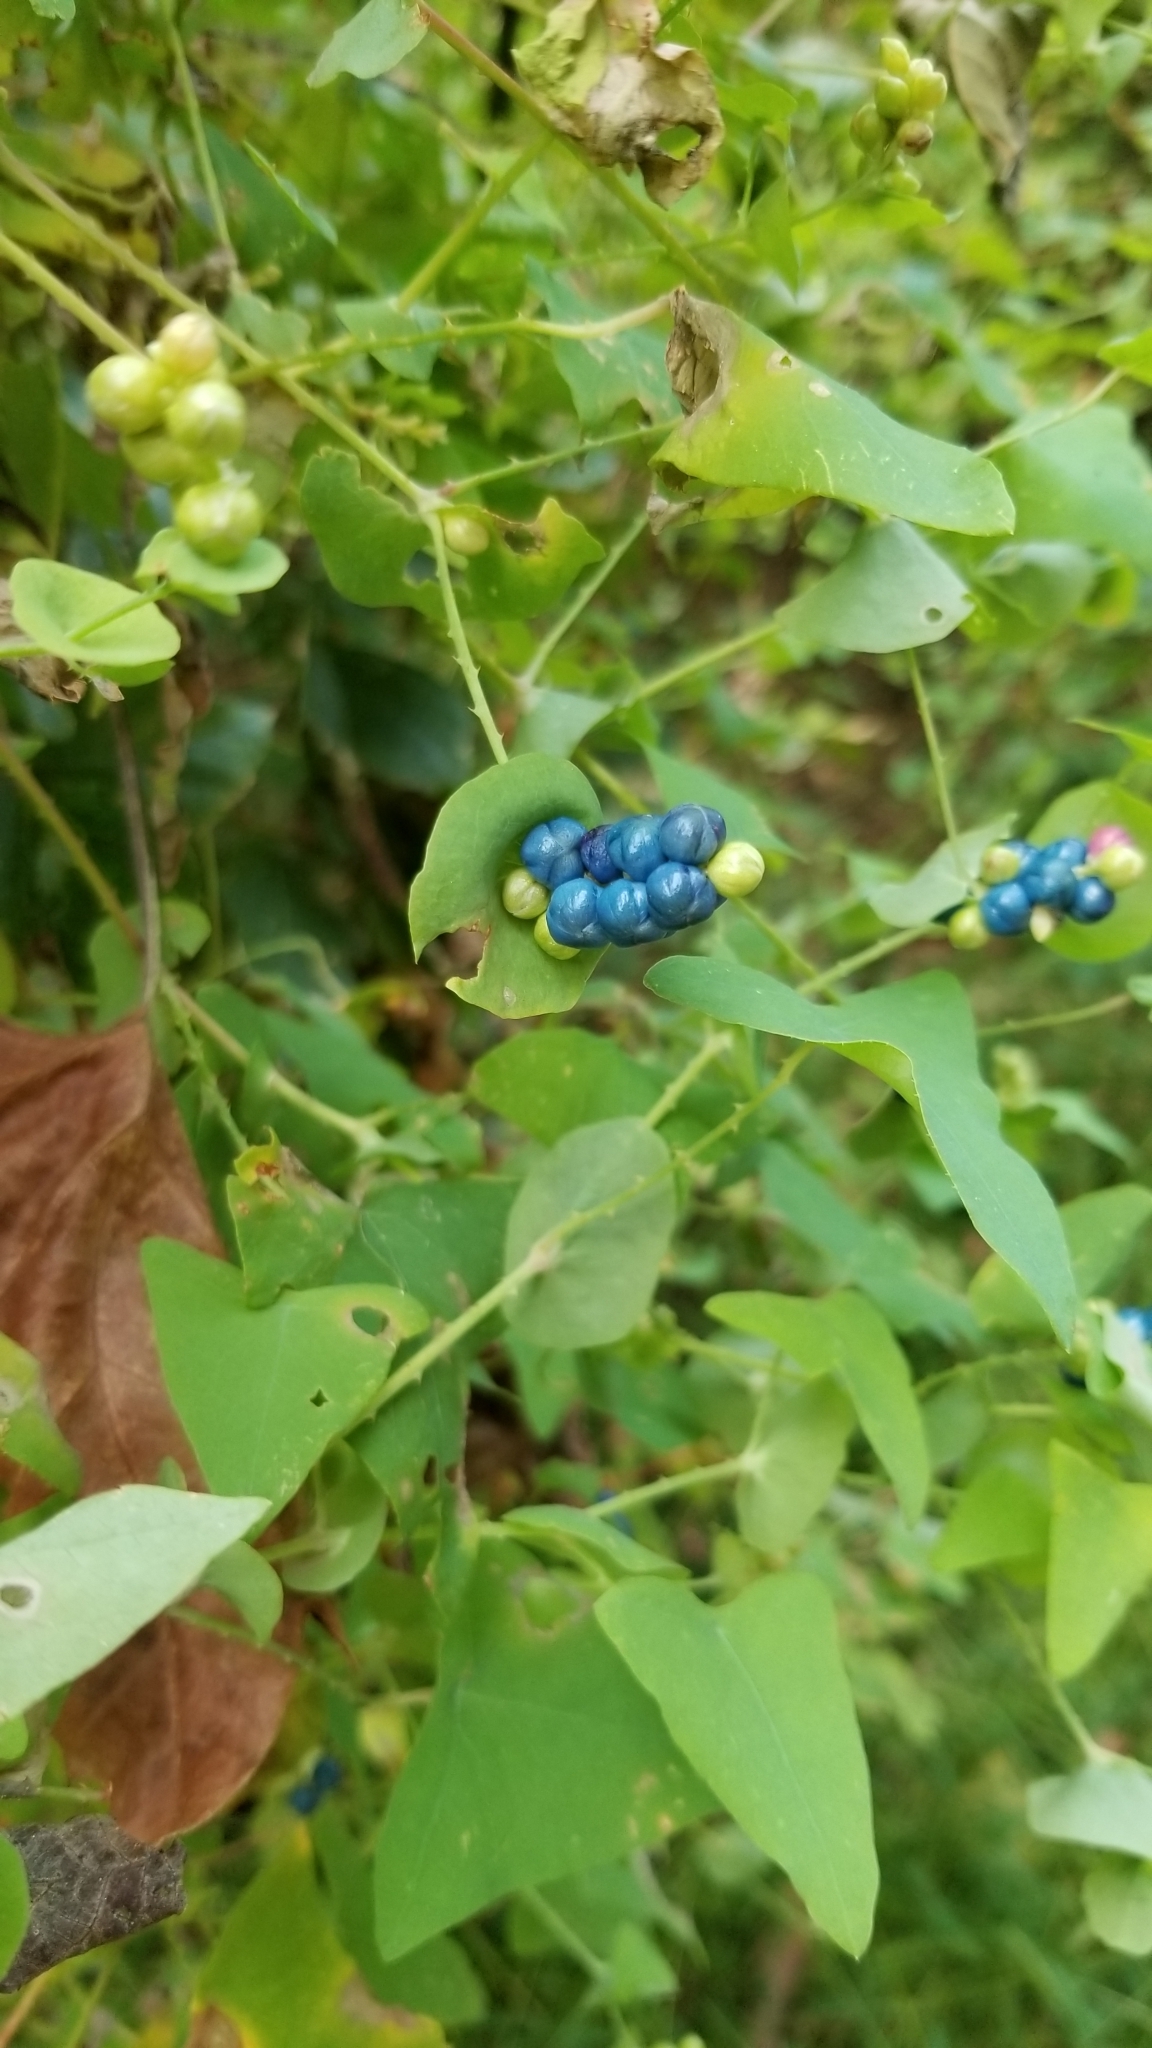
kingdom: Plantae
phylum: Tracheophyta
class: Magnoliopsida
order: Caryophyllales
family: Polygonaceae
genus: Persicaria
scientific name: Persicaria perfoliata
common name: Asiatic tearthumb
